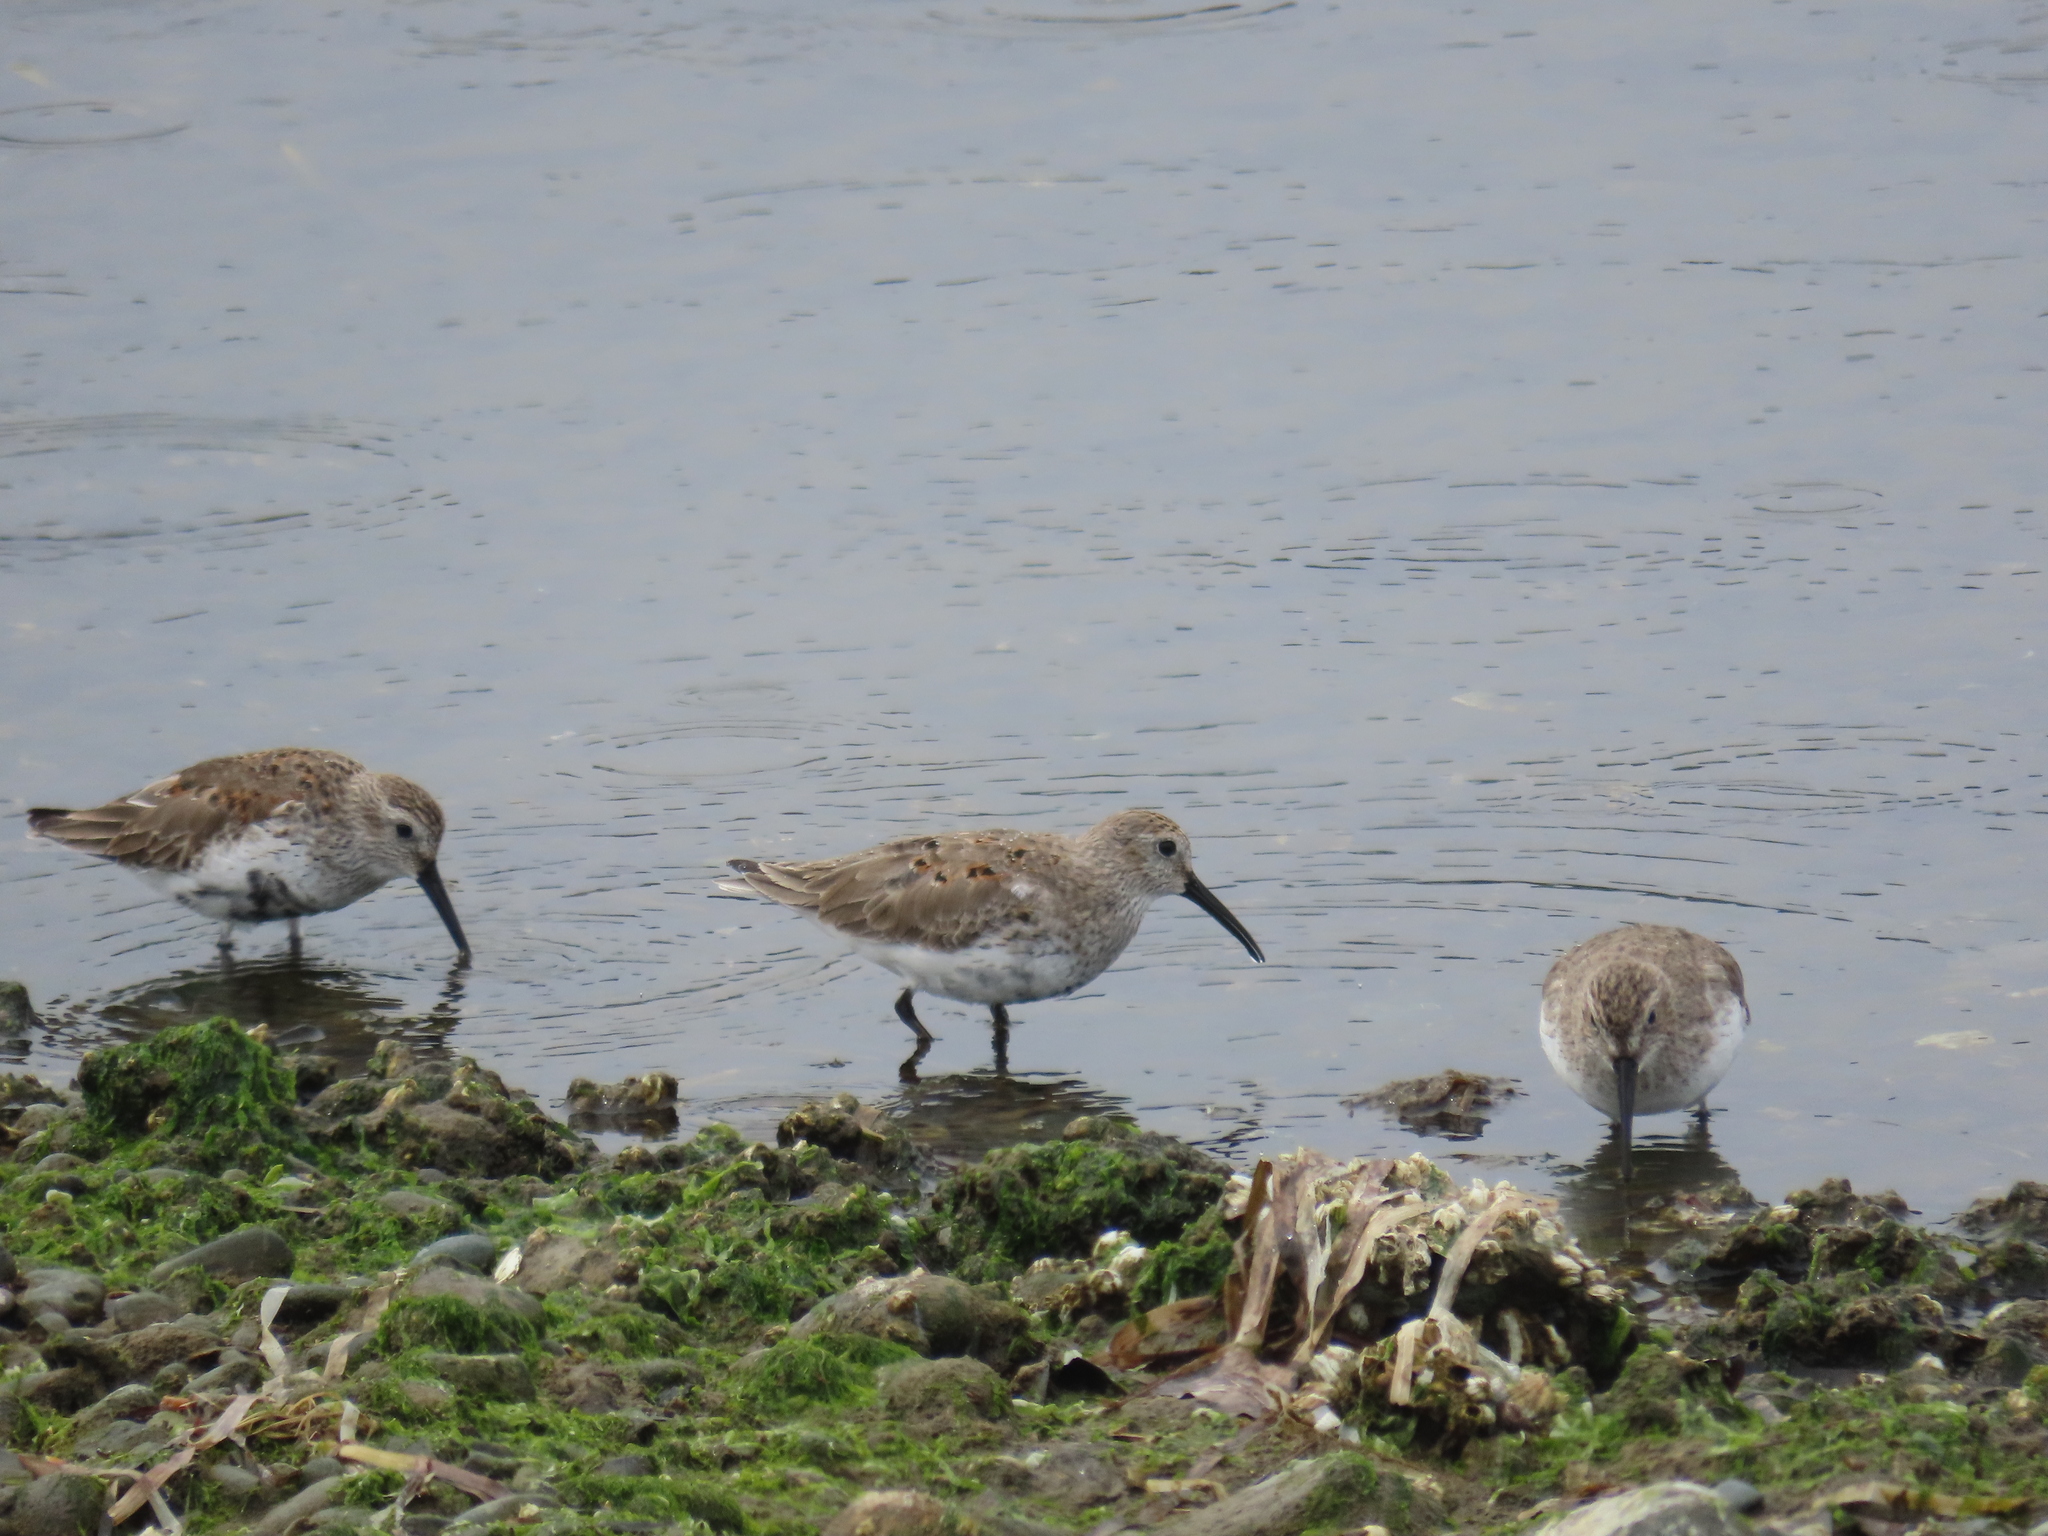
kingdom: Animalia
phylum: Chordata
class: Aves
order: Charadriiformes
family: Scolopacidae
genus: Calidris
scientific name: Calidris alpina
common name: Dunlin
